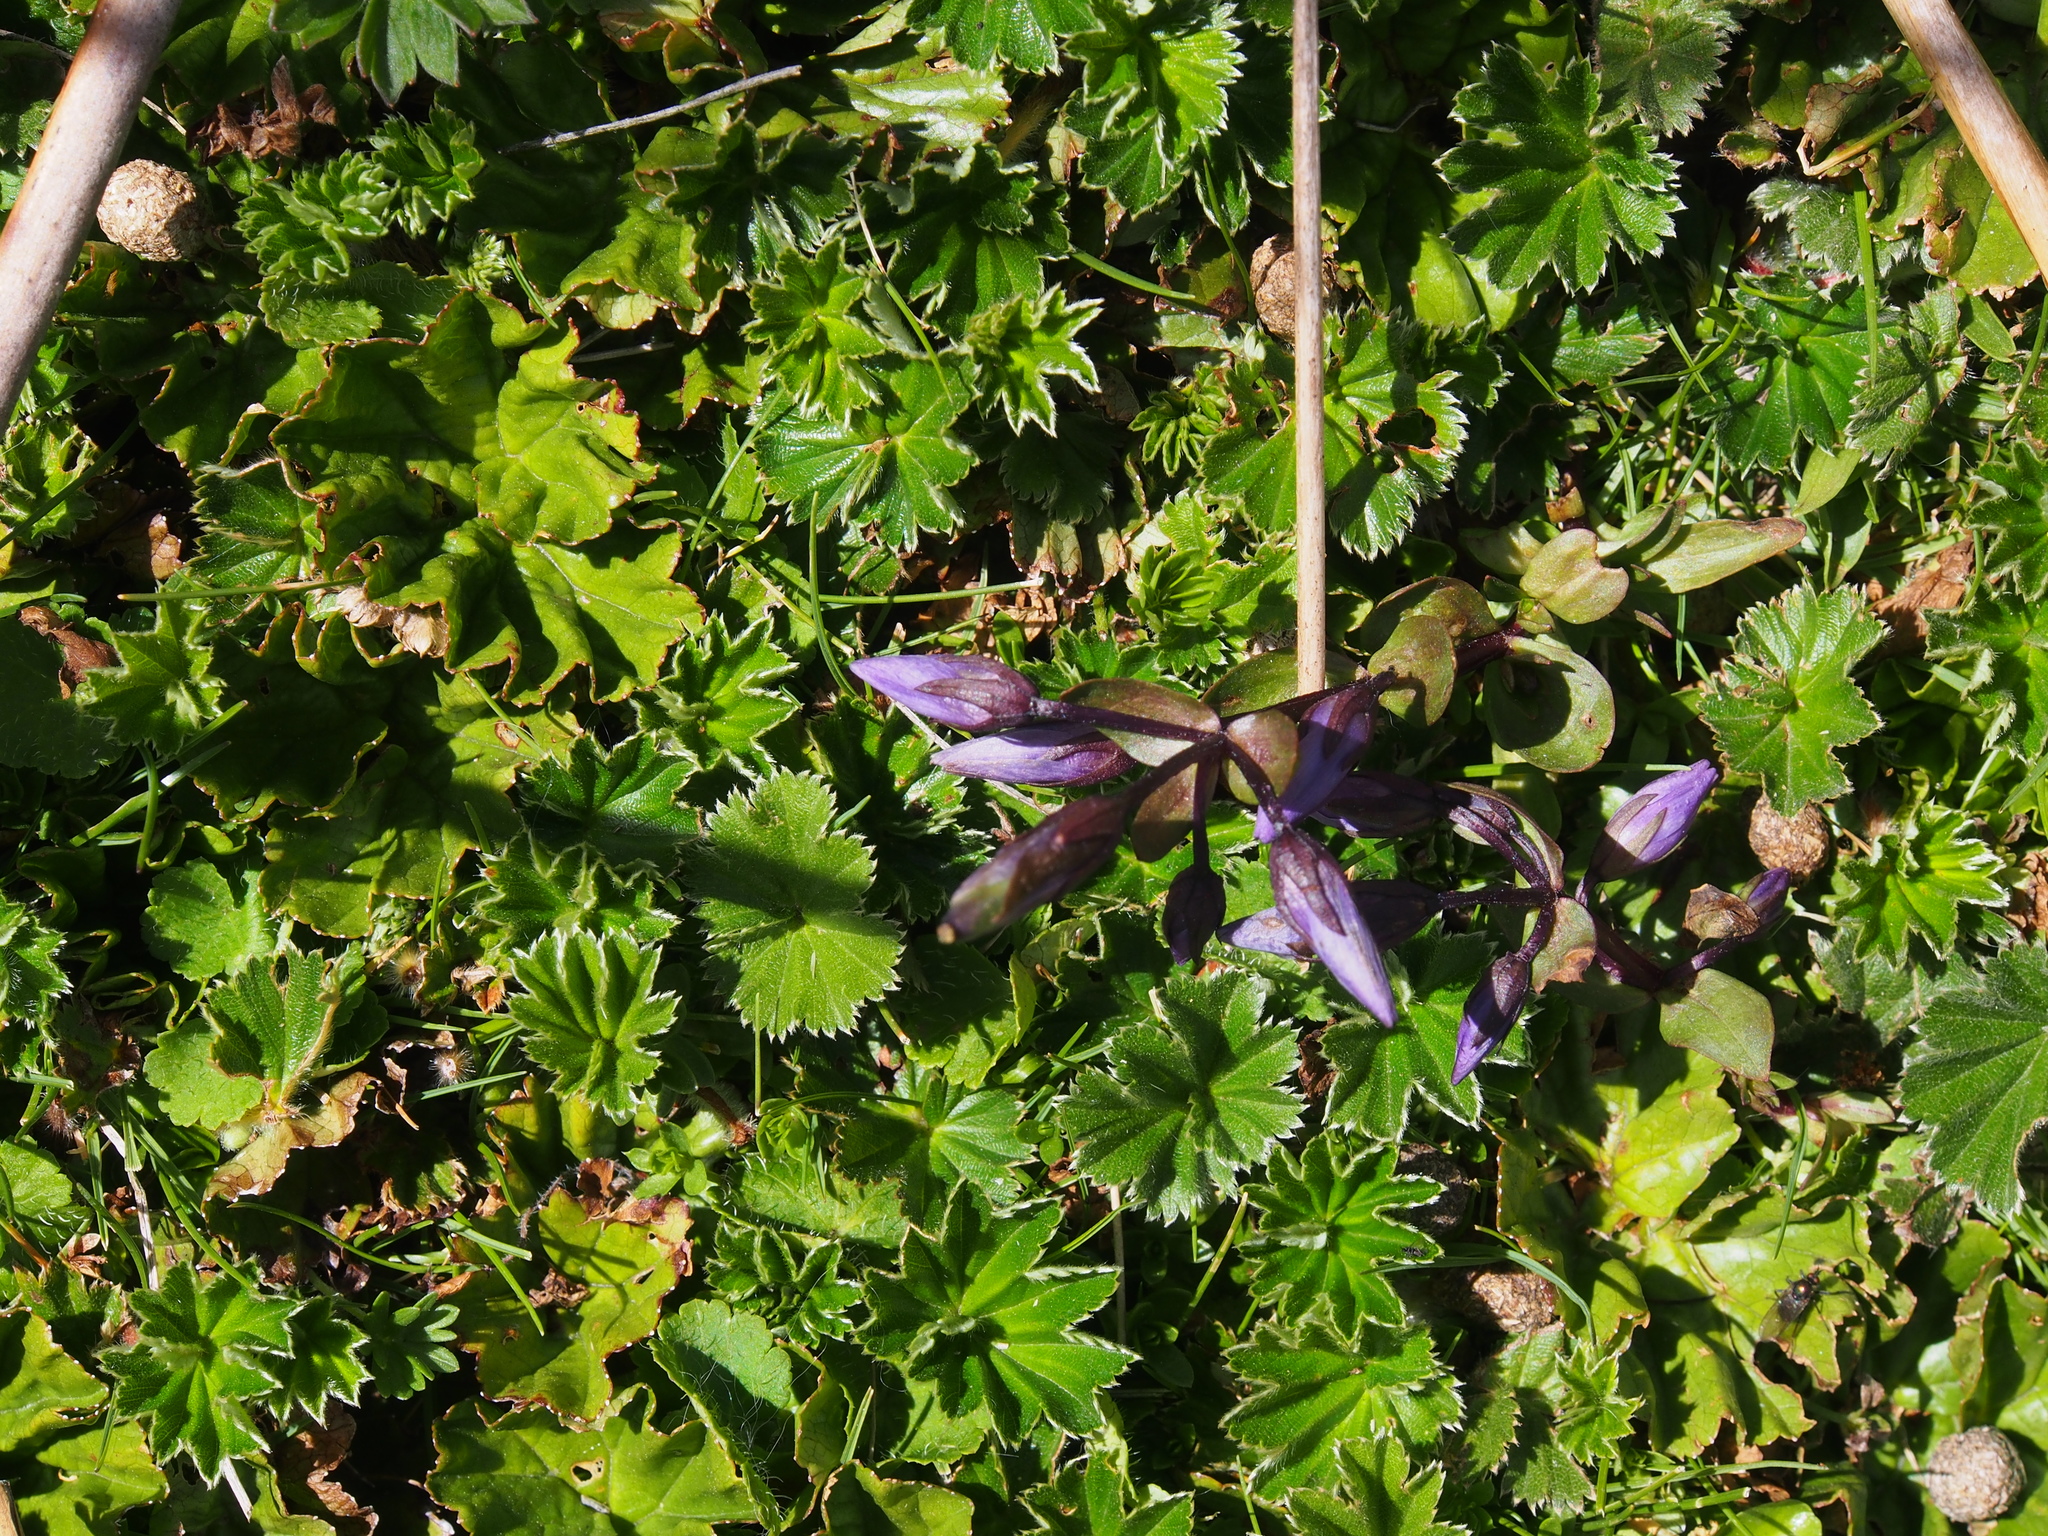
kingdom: Plantae
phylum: Tracheophyta
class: Magnoliopsida
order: Gentianales
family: Gentianaceae
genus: Gentianella
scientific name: Gentianella rapunculoides
